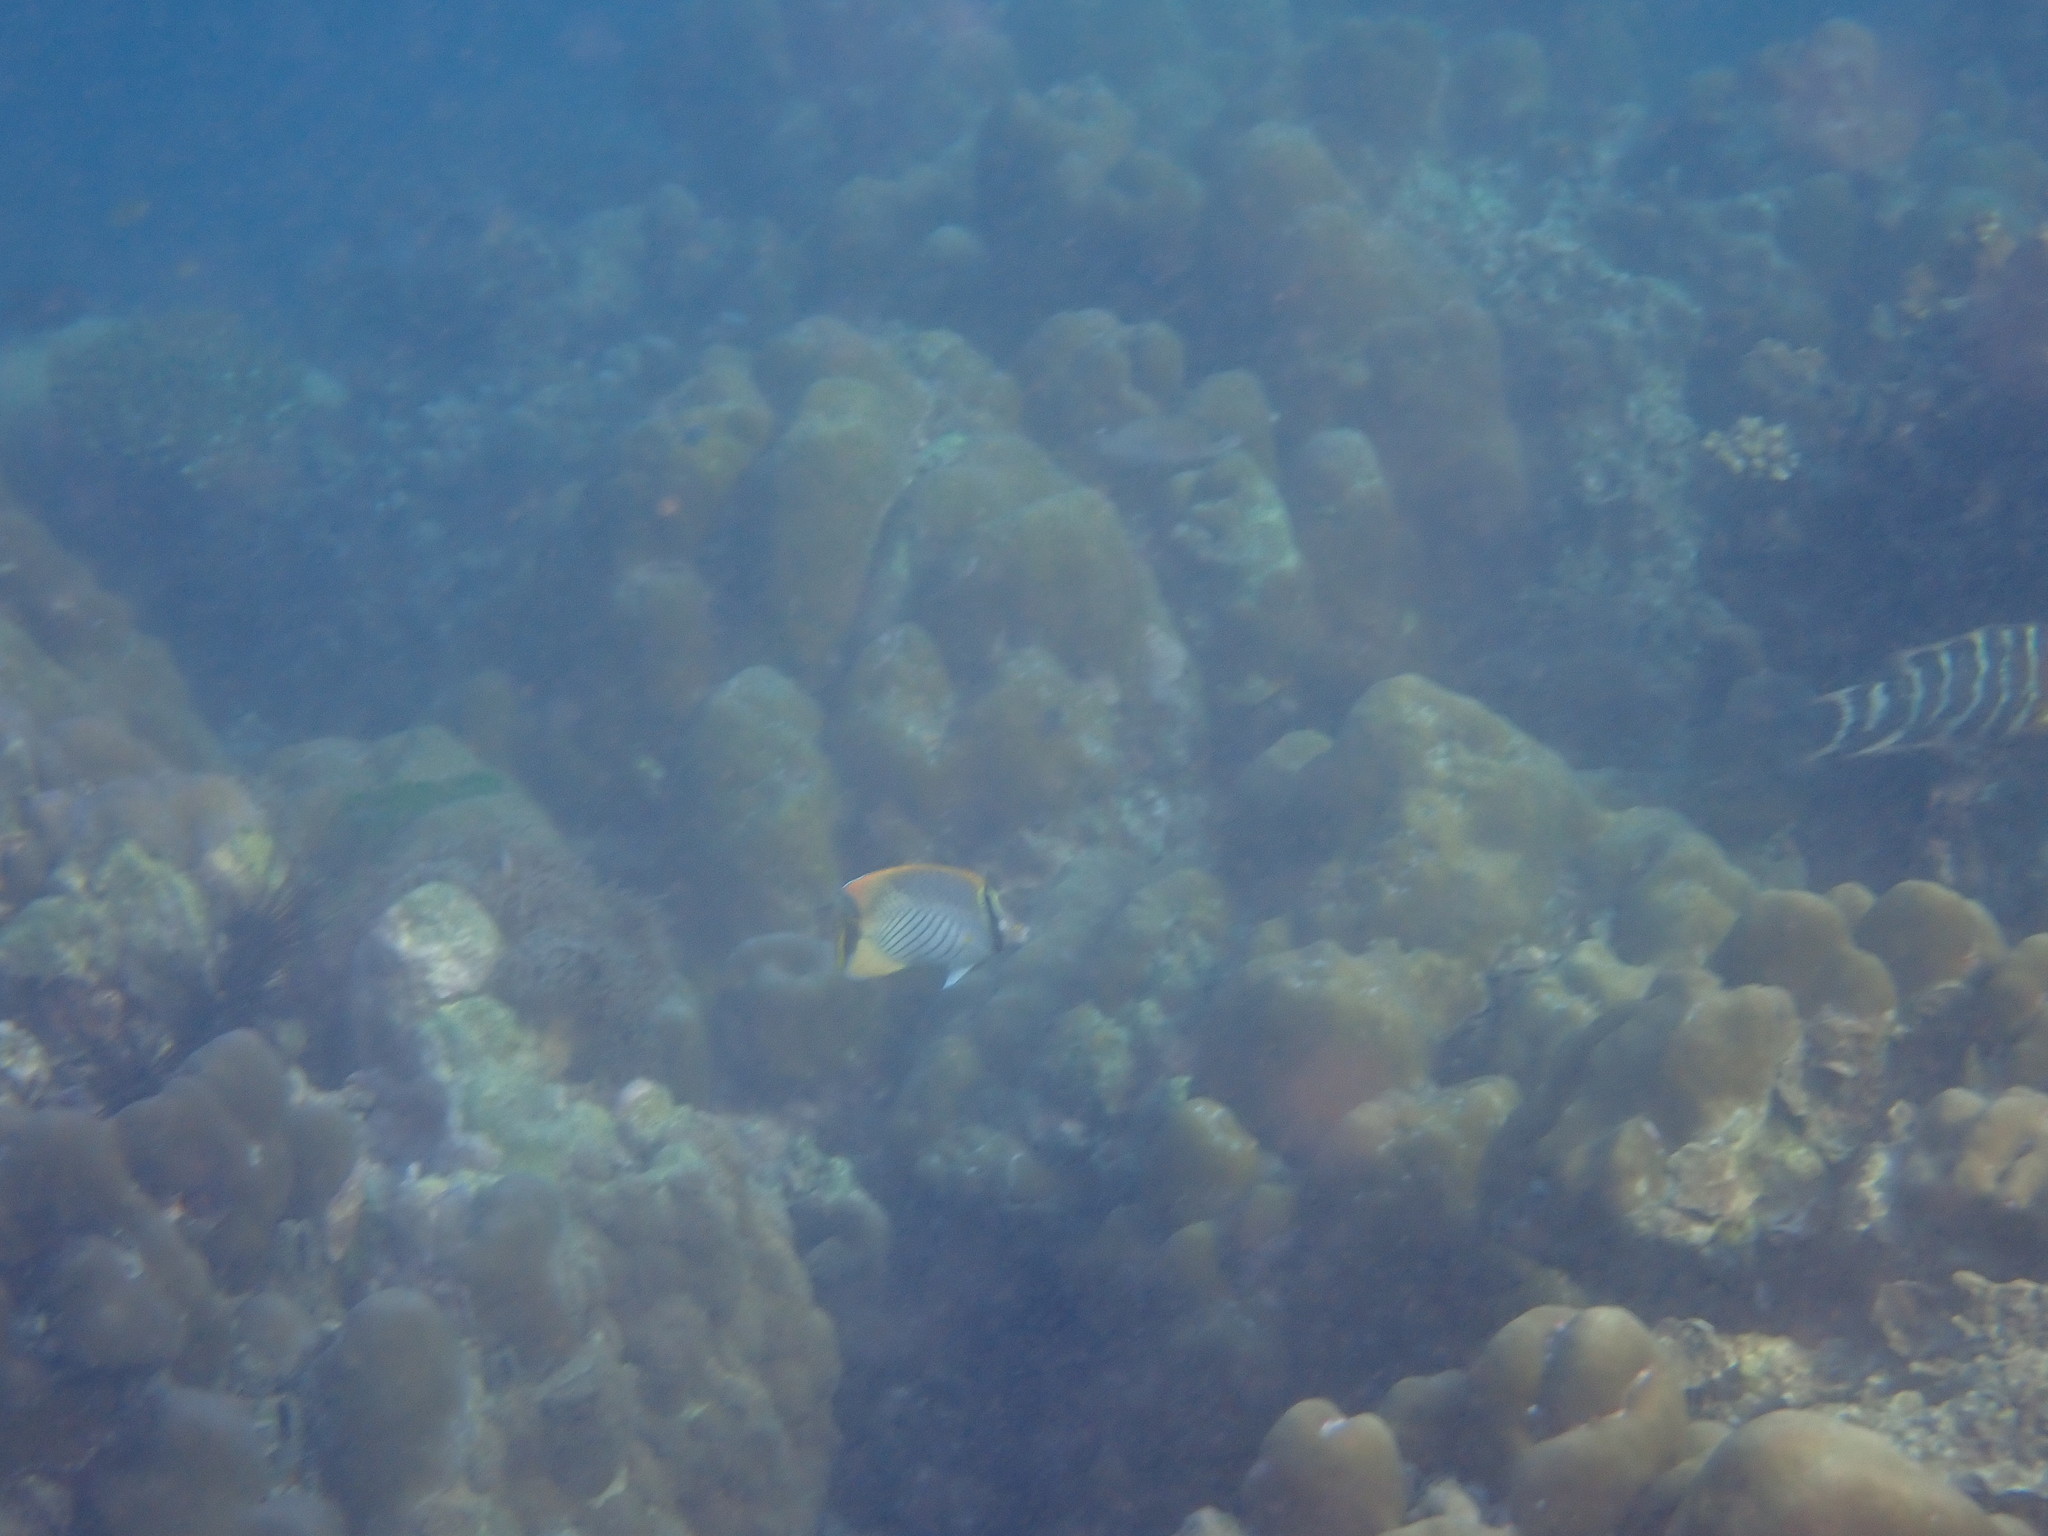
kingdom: Animalia
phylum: Chordata
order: Perciformes
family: Chaetodontidae
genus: Chaetodon
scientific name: Chaetodon trifascialis
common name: Chevroned butterflyfish
